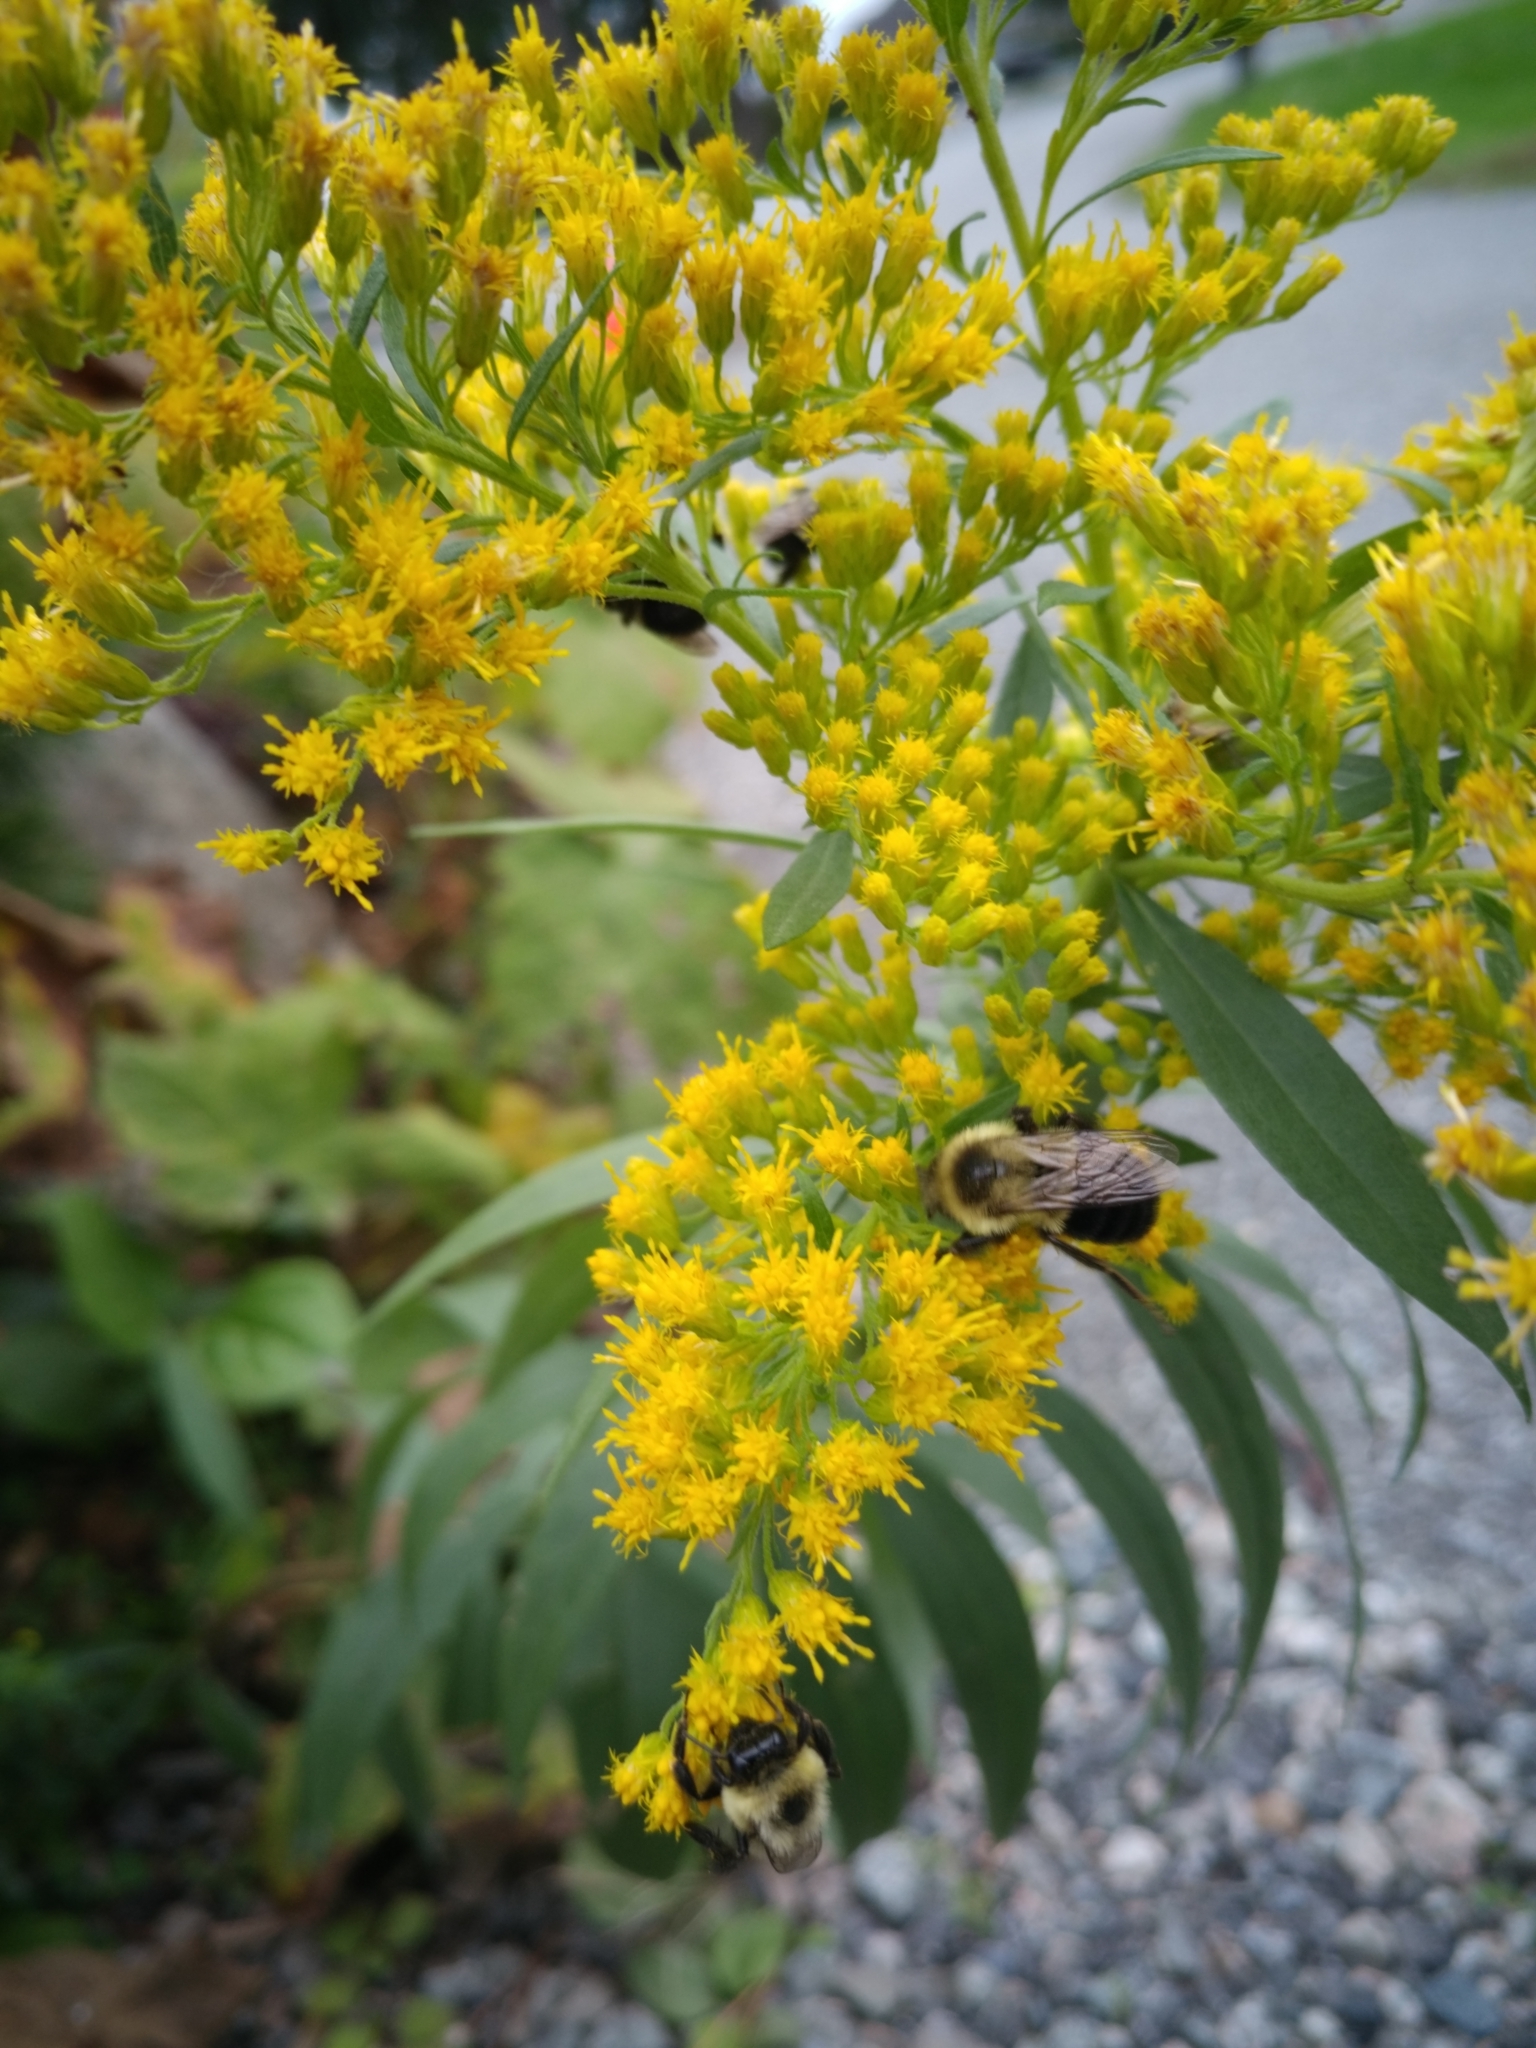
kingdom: Animalia
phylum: Arthropoda
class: Insecta
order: Hymenoptera
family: Apidae
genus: Bombus
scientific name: Bombus impatiens
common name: Common eastern bumble bee
